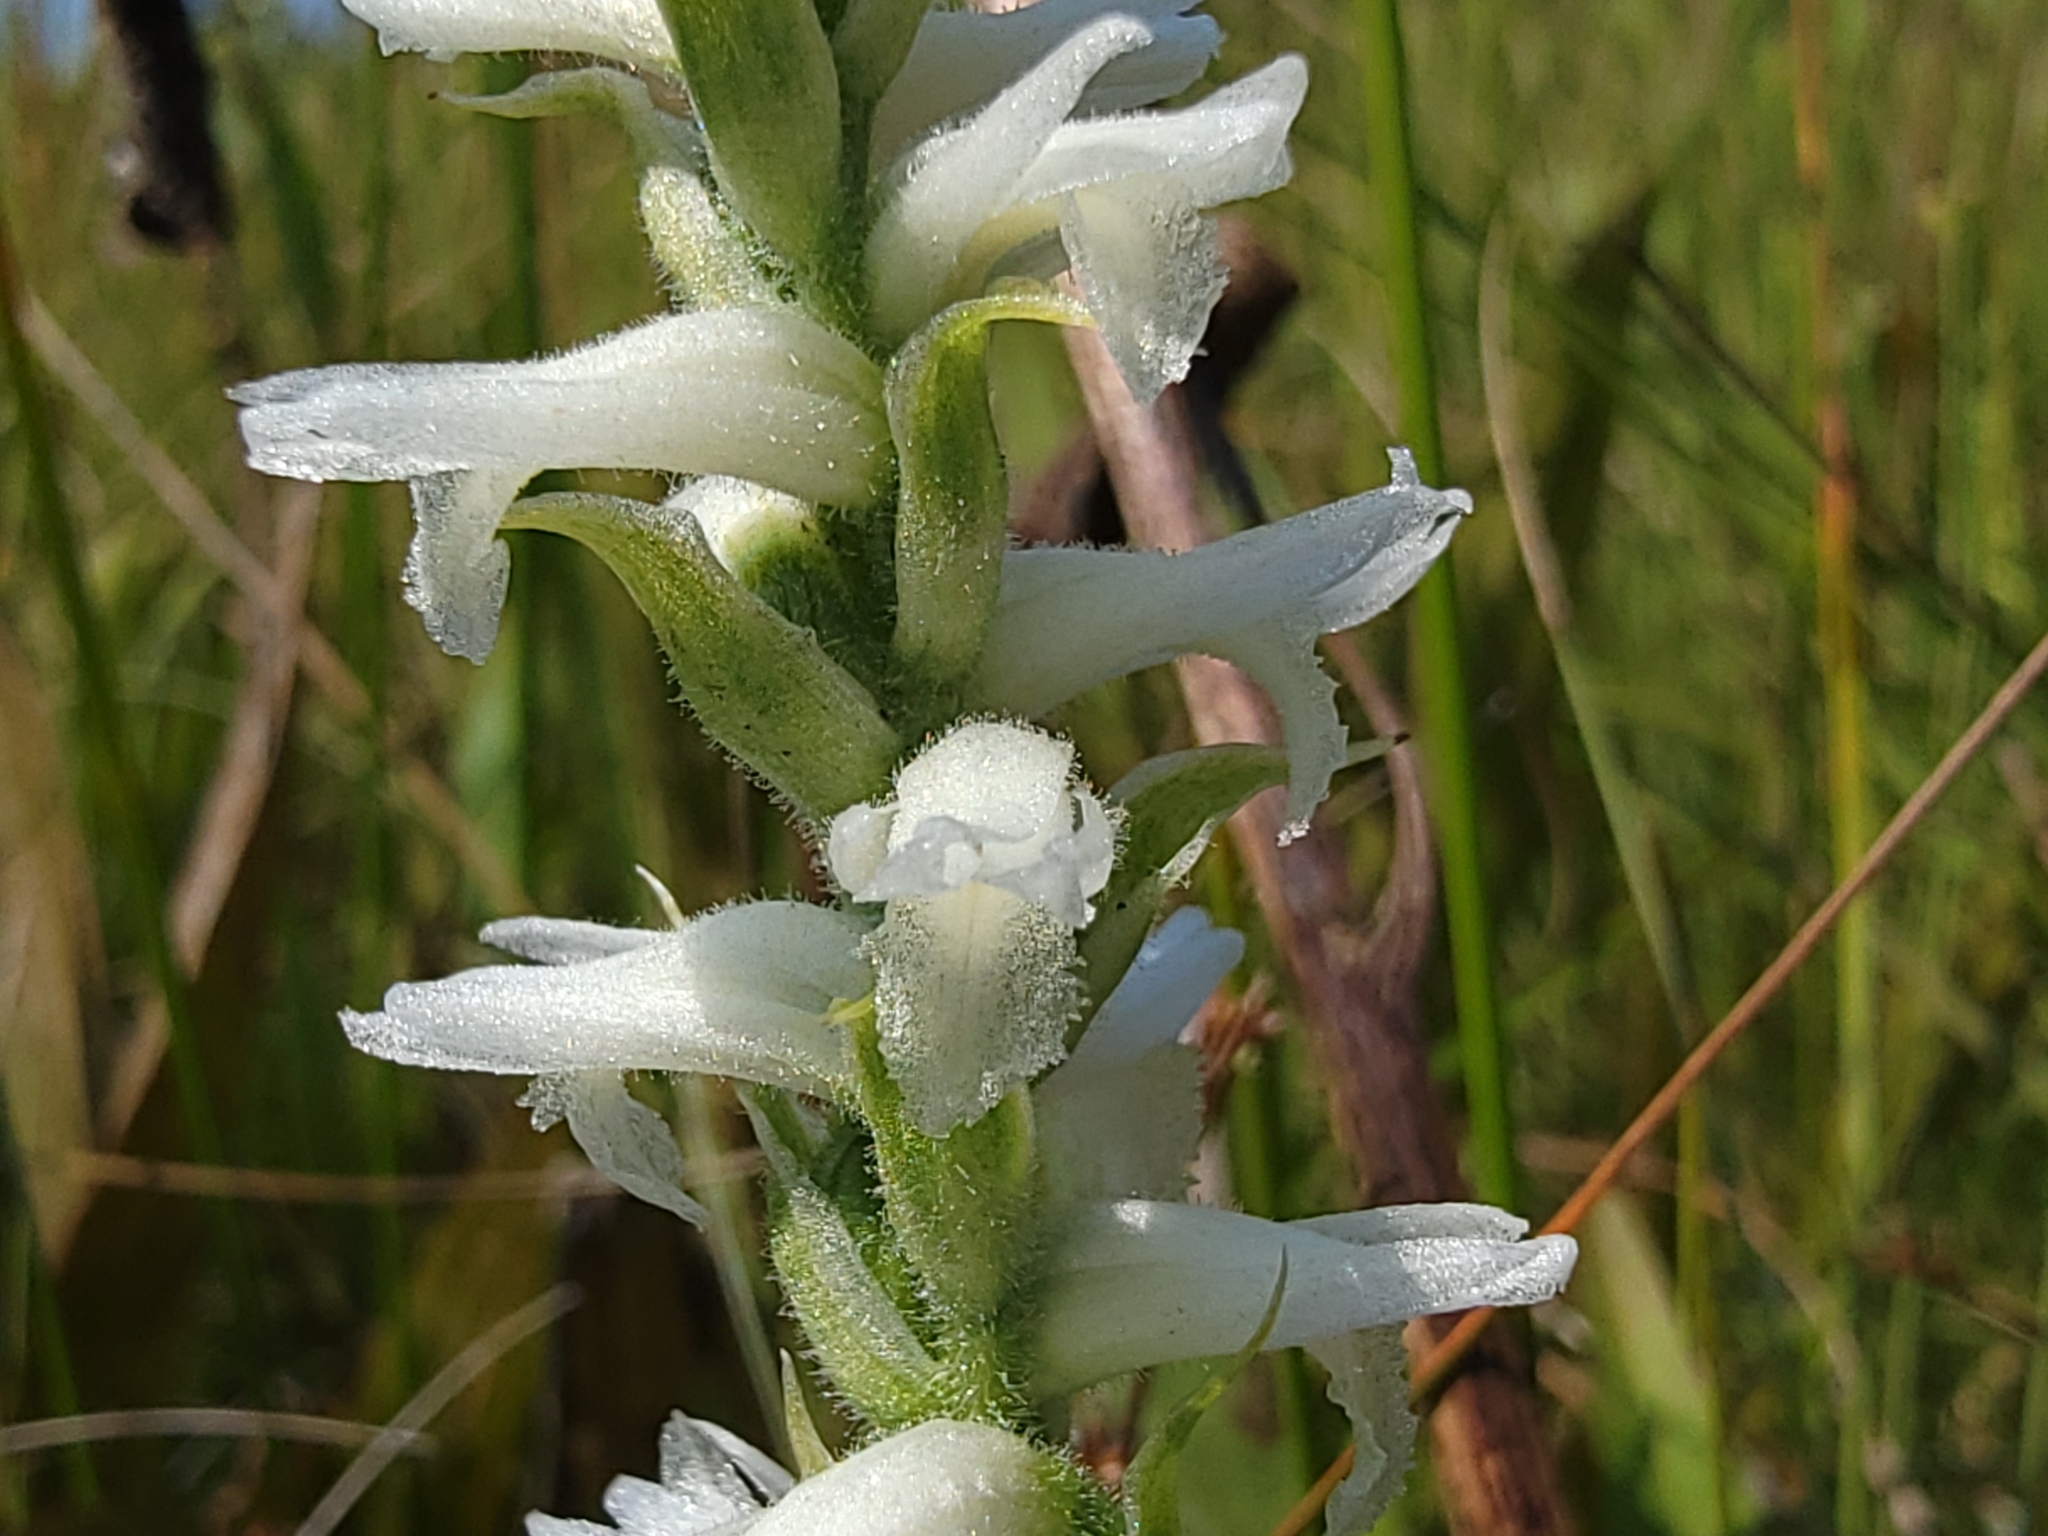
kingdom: Plantae
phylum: Tracheophyta
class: Liliopsida
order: Asparagales
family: Orchidaceae
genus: Spiranthes
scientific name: Spiranthes incurva
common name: Sphinx ladies'-tresses
